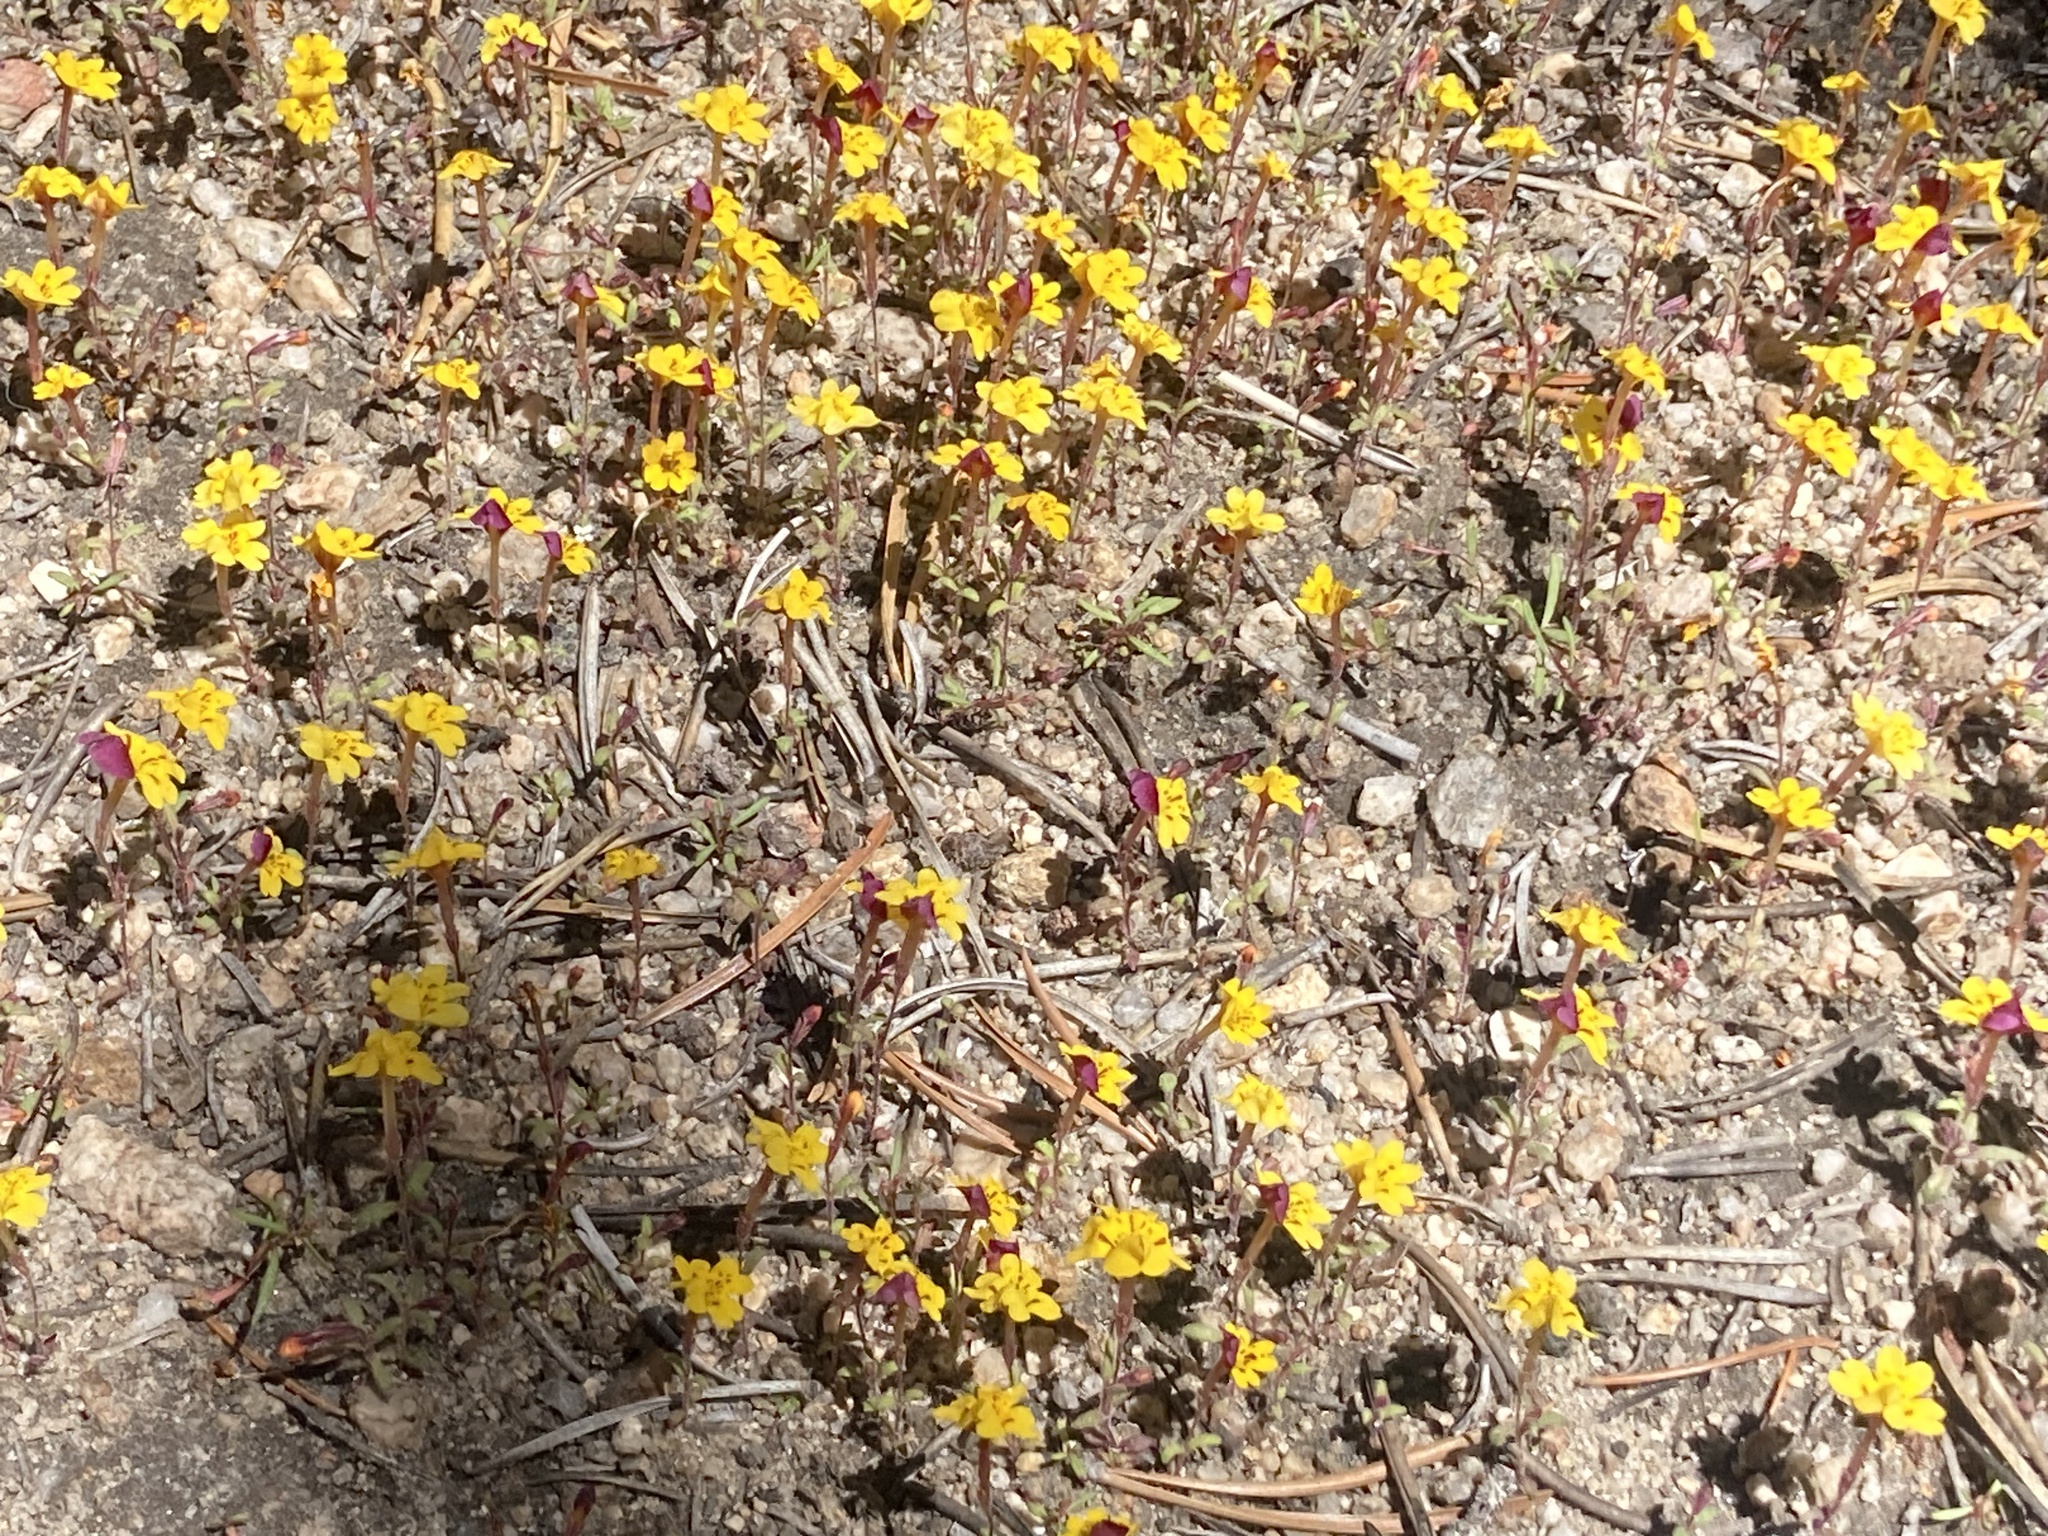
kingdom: Plantae
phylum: Tracheophyta
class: Magnoliopsida
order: Lamiales
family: Phrymaceae
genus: Erythranthe
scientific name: Erythranthe barbata
